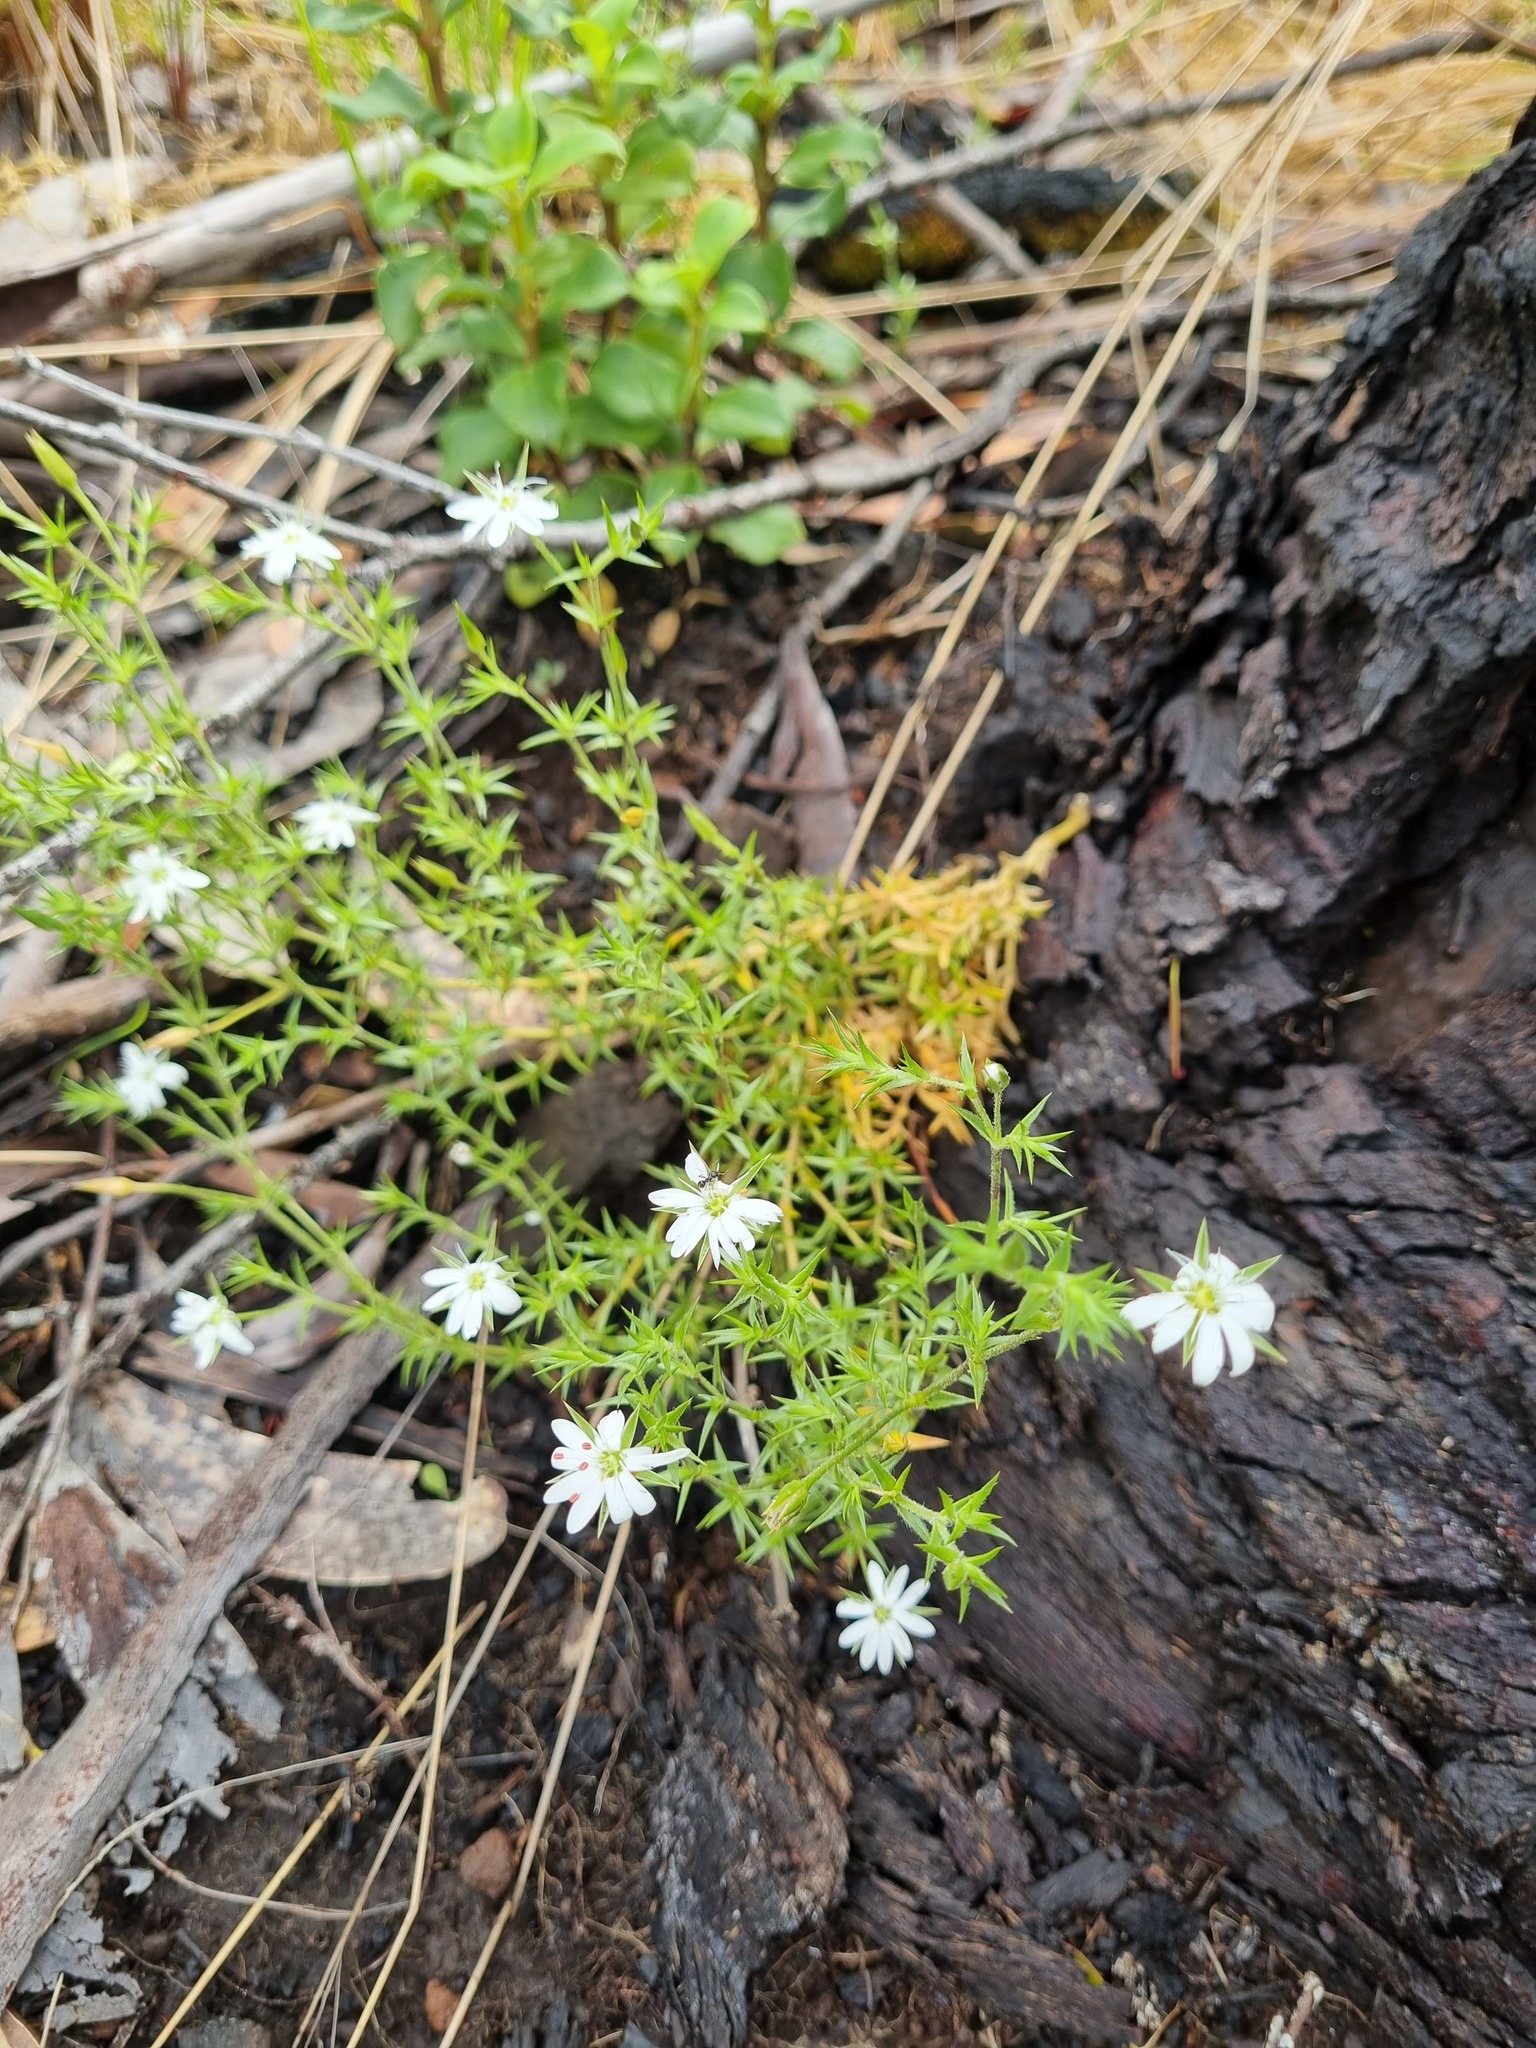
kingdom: Plantae
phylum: Tracheophyta
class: Magnoliopsida
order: Caryophyllales
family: Caryophyllaceae
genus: Stellaria
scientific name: Stellaria pungens
